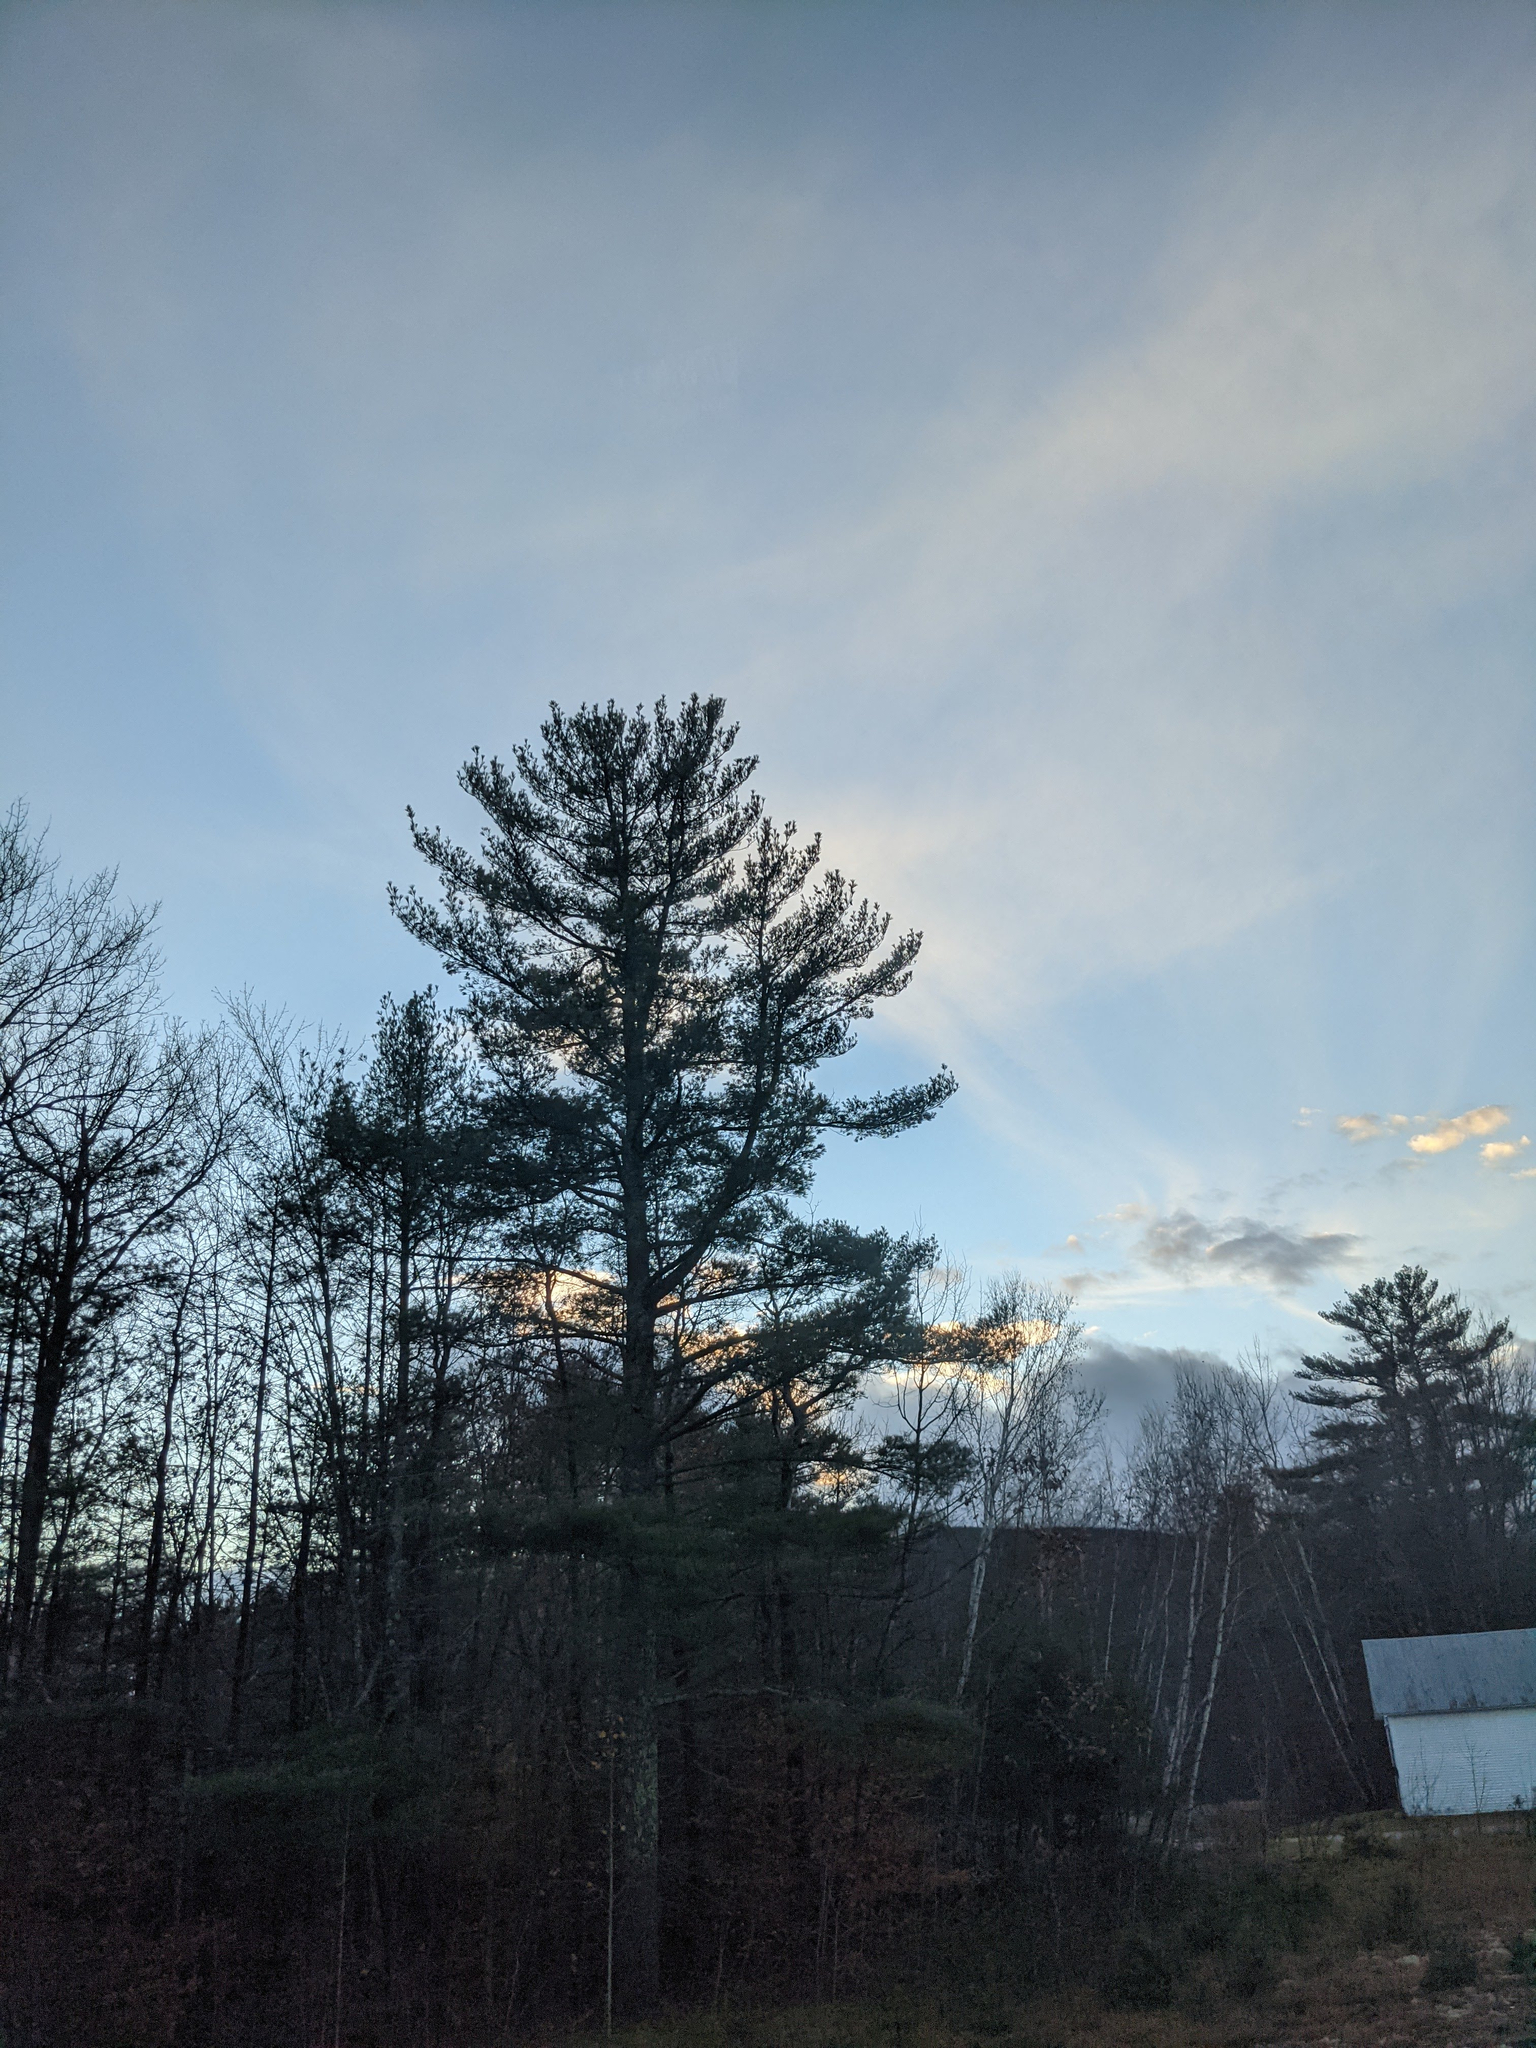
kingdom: Plantae
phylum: Tracheophyta
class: Pinopsida
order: Pinales
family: Pinaceae
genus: Pinus
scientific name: Pinus strobus
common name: Weymouth pine
